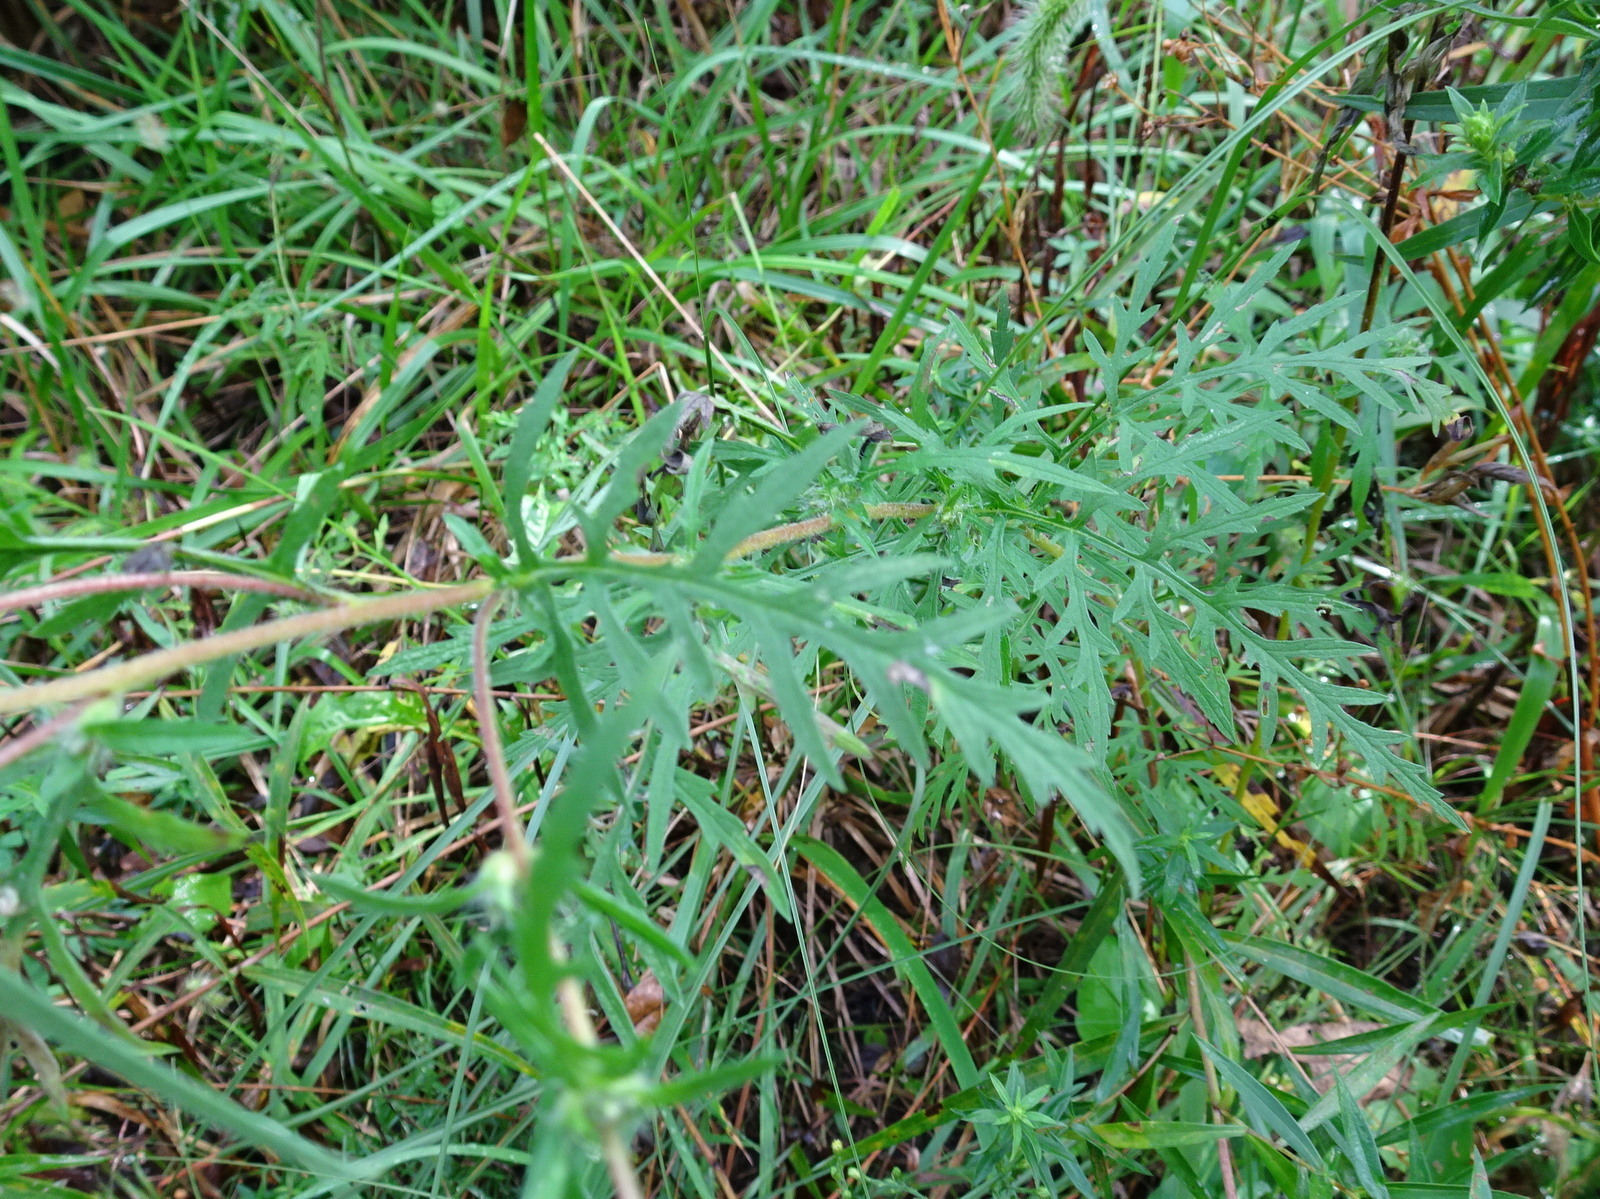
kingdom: Plantae
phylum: Tracheophyta
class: Magnoliopsida
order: Asterales
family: Asteraceae
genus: Ambrosia
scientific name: Ambrosia artemisiifolia
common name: Annual ragweed
